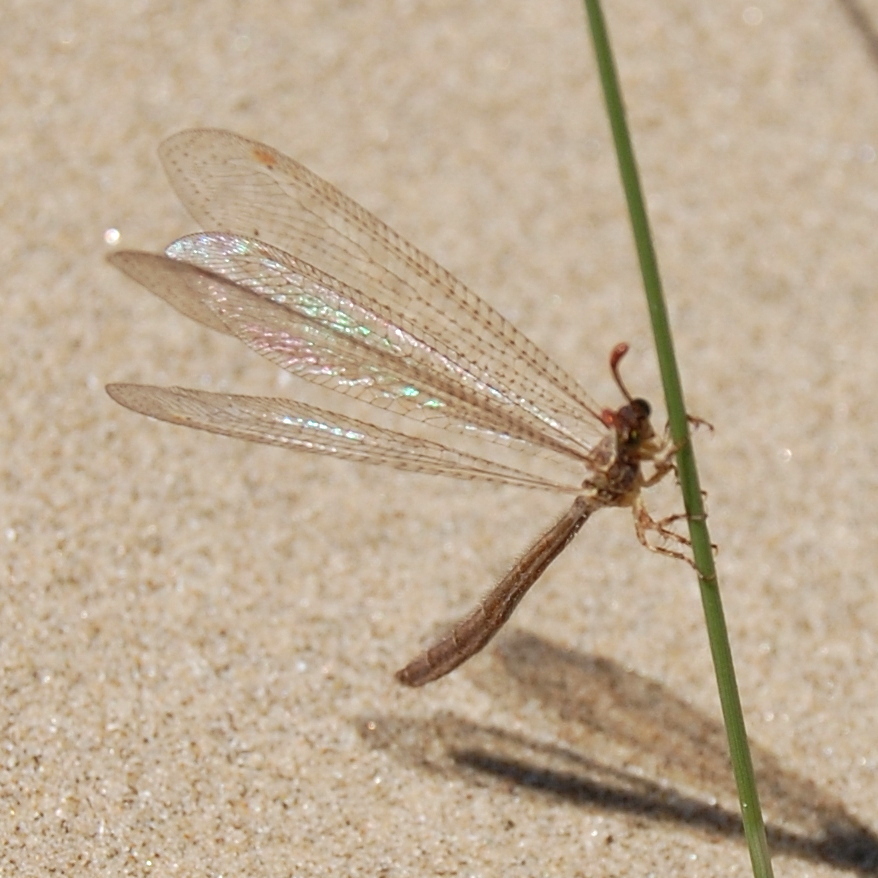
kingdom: Animalia
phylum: Arthropoda
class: Insecta
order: Neuroptera
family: Myrmeleontidae
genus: Argentoleon
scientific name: Argentoleon irrigatus
